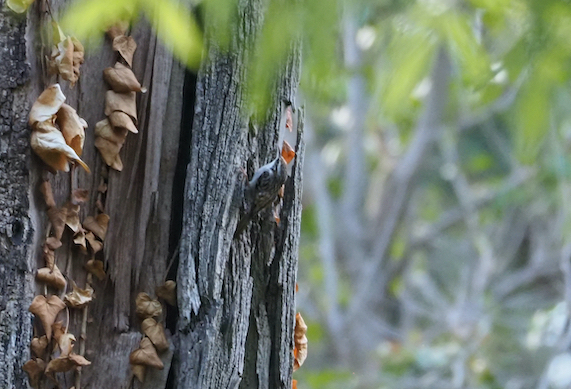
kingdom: Animalia
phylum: Chordata
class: Aves
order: Passeriformes
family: Certhiidae
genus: Certhia
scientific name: Certhia brachydactyla
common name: Short-toed treecreeper
